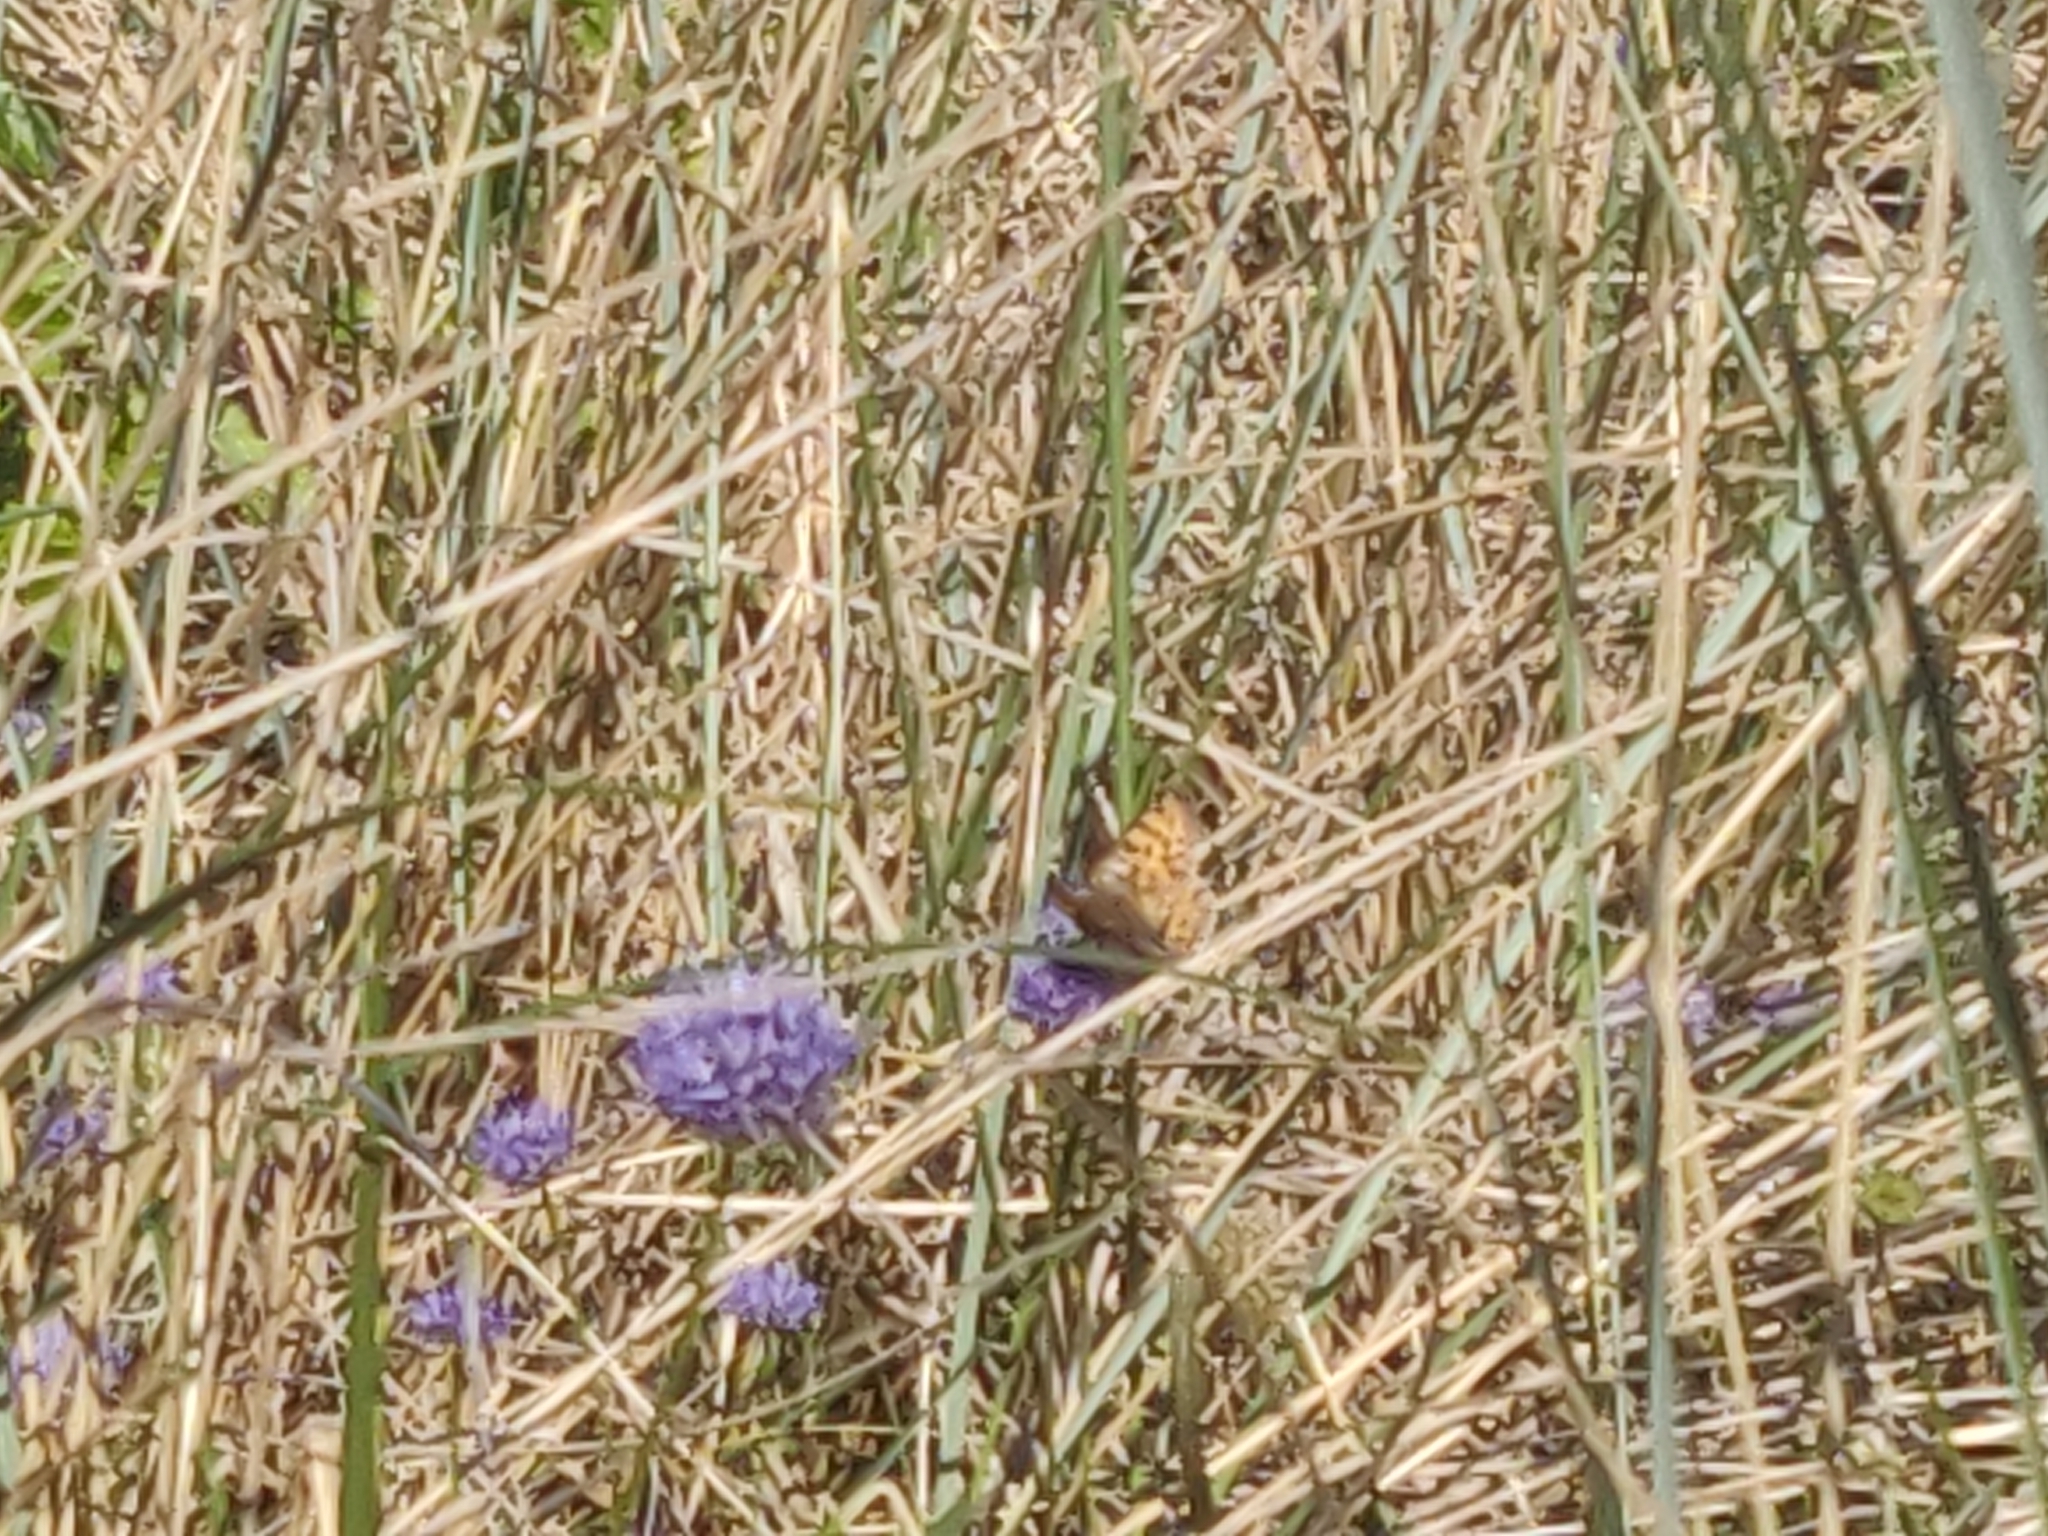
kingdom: Animalia
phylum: Arthropoda
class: Insecta
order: Lepidoptera
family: Nymphalidae
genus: Issoria
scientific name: Issoria lathonia
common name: Queen of spain fritillary
